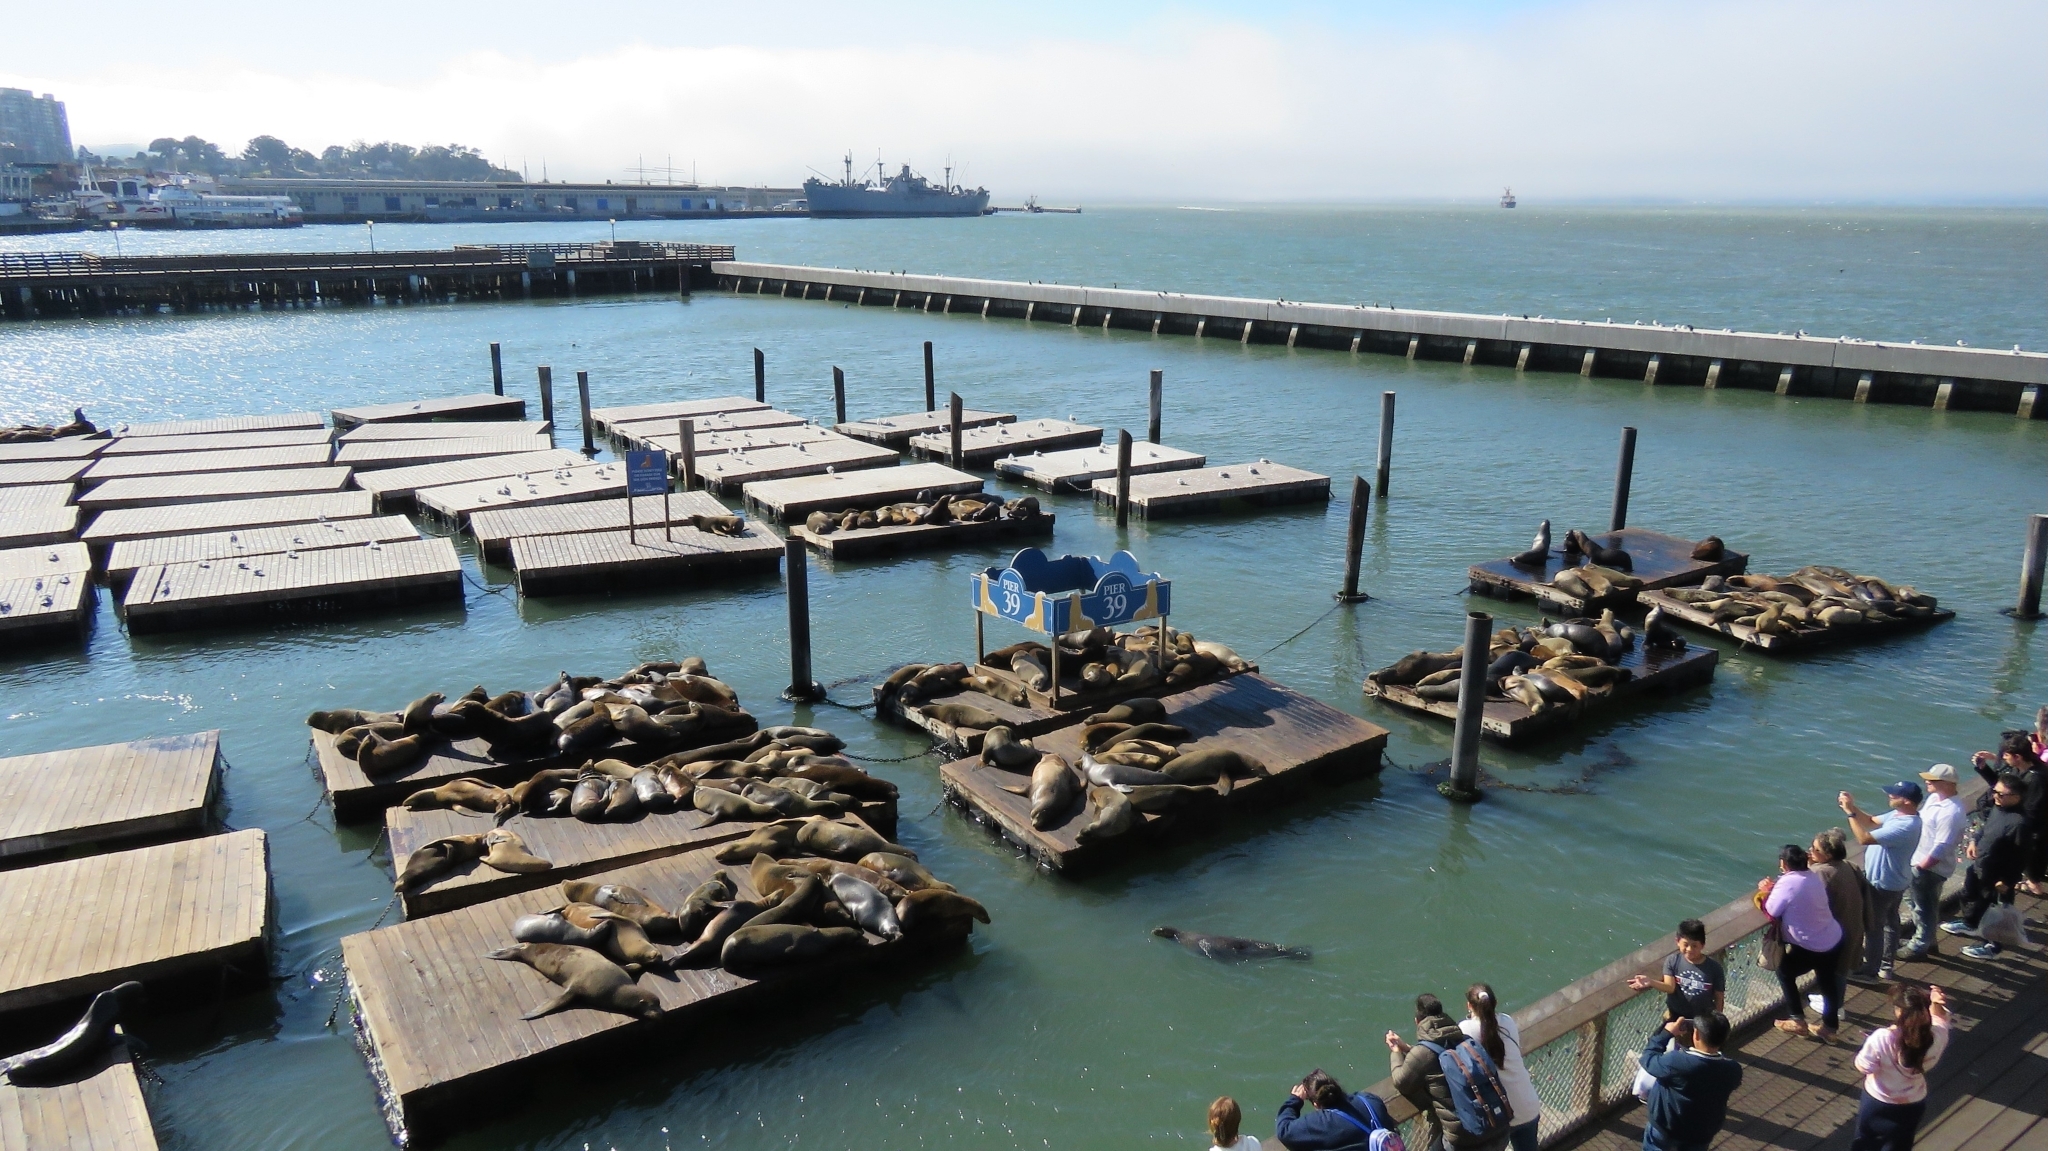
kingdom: Animalia
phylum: Chordata
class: Mammalia
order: Carnivora
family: Otariidae
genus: Zalophus
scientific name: Zalophus californianus
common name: California sea lion
